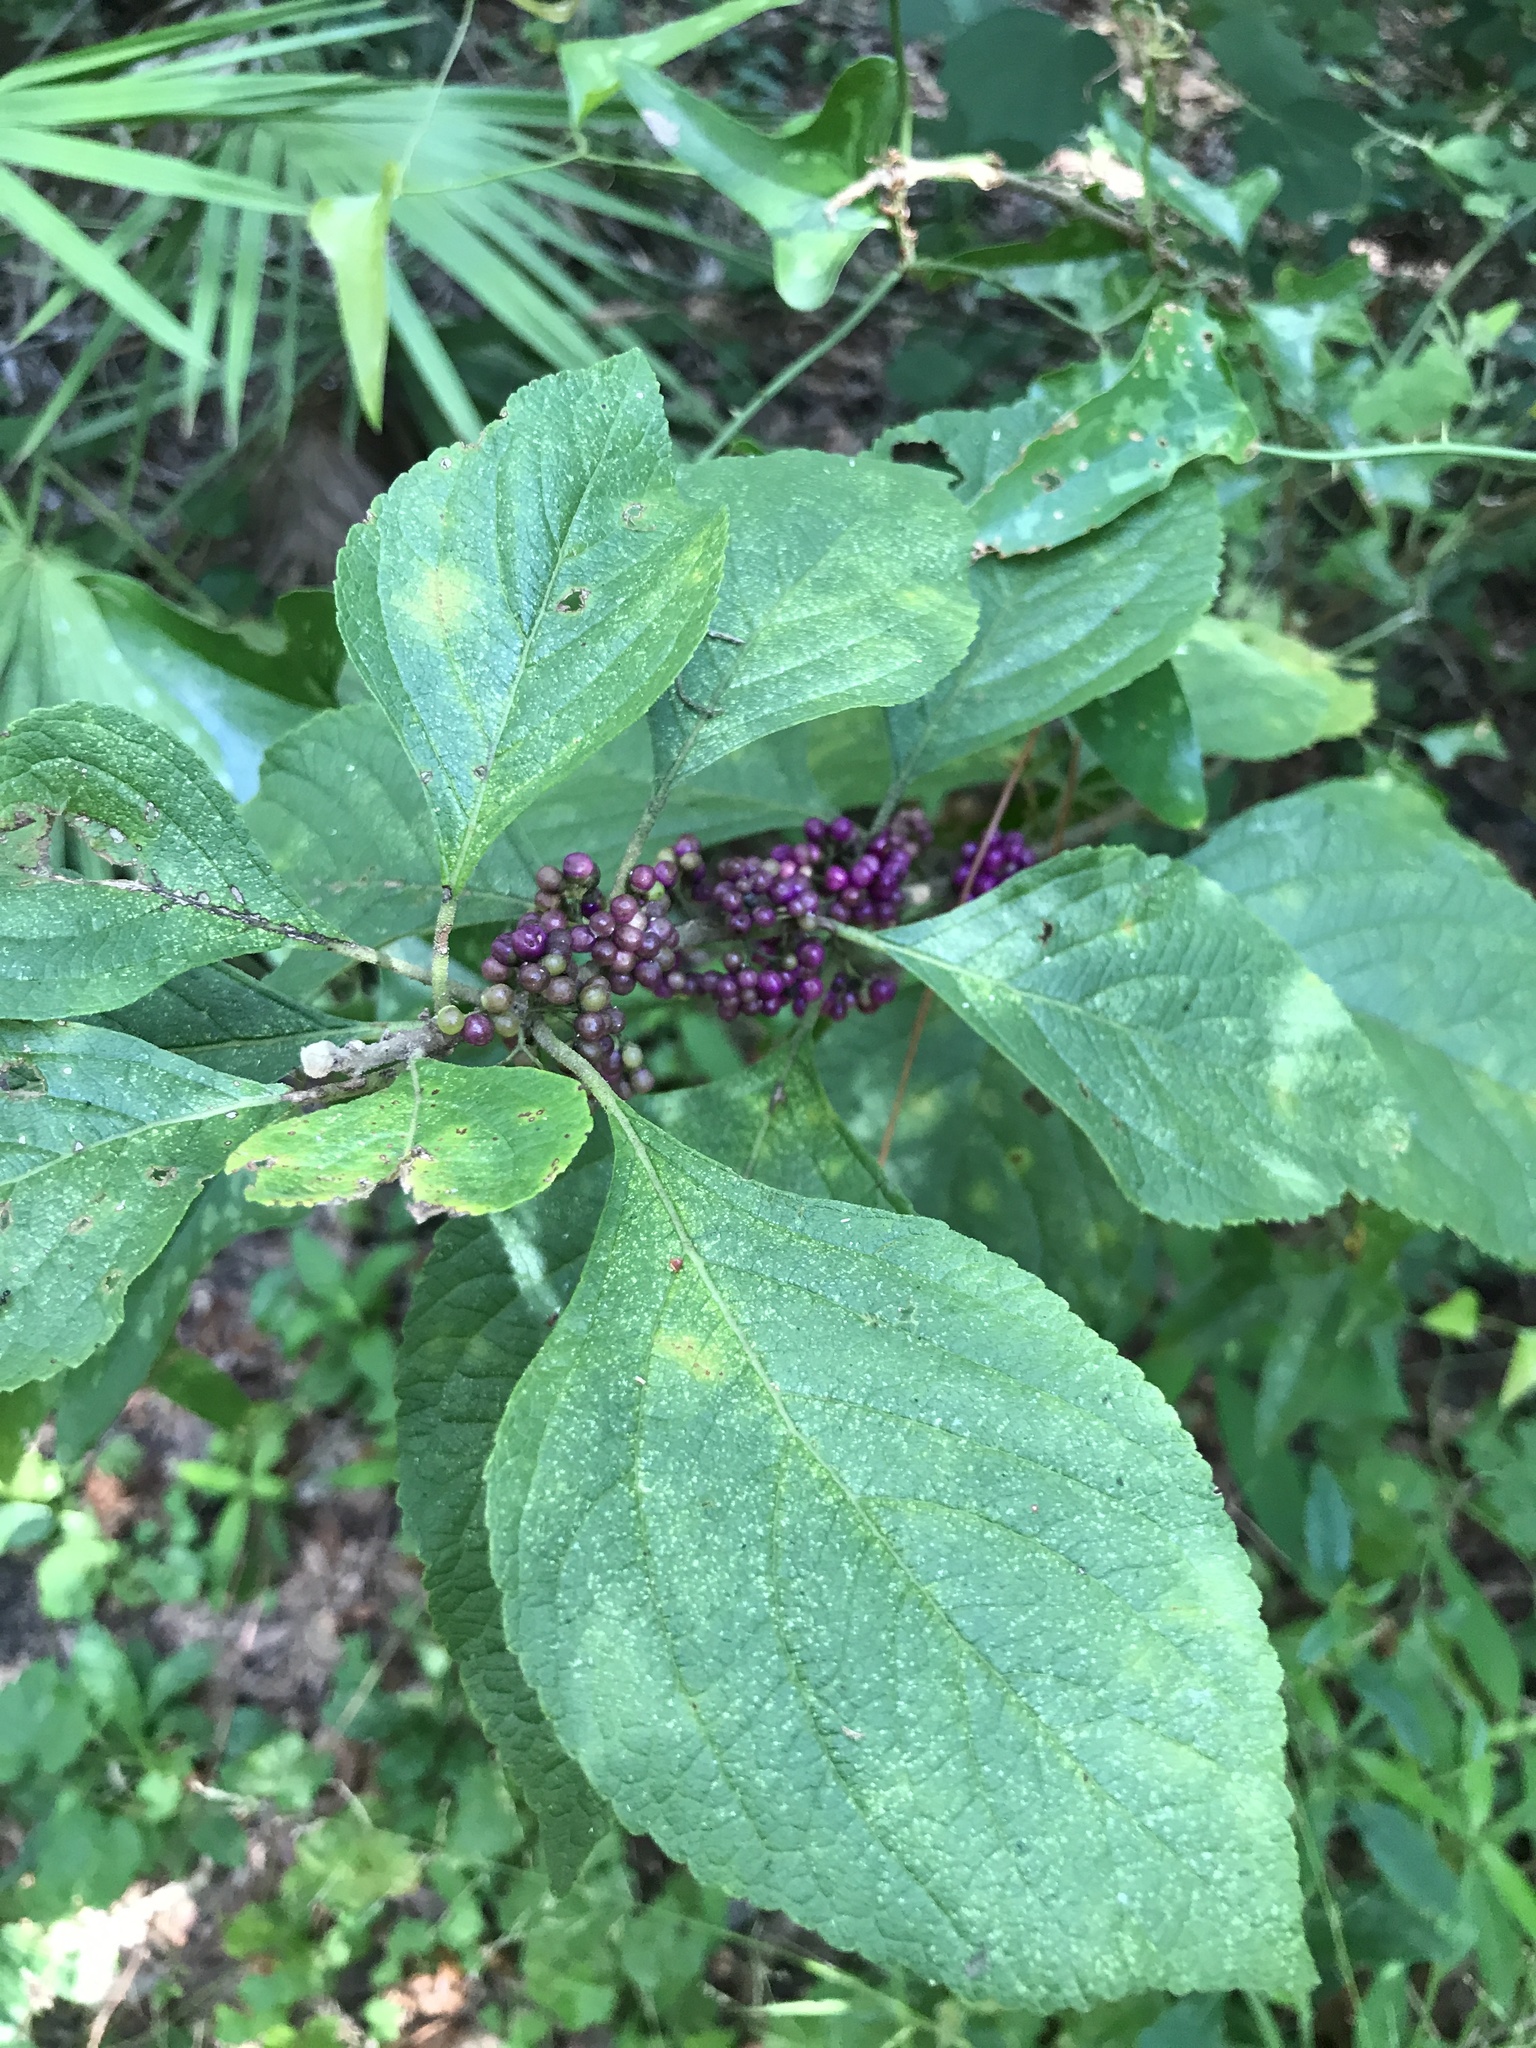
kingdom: Plantae
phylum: Tracheophyta
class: Magnoliopsida
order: Lamiales
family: Lamiaceae
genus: Callicarpa
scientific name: Callicarpa americana
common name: American beautyberry
